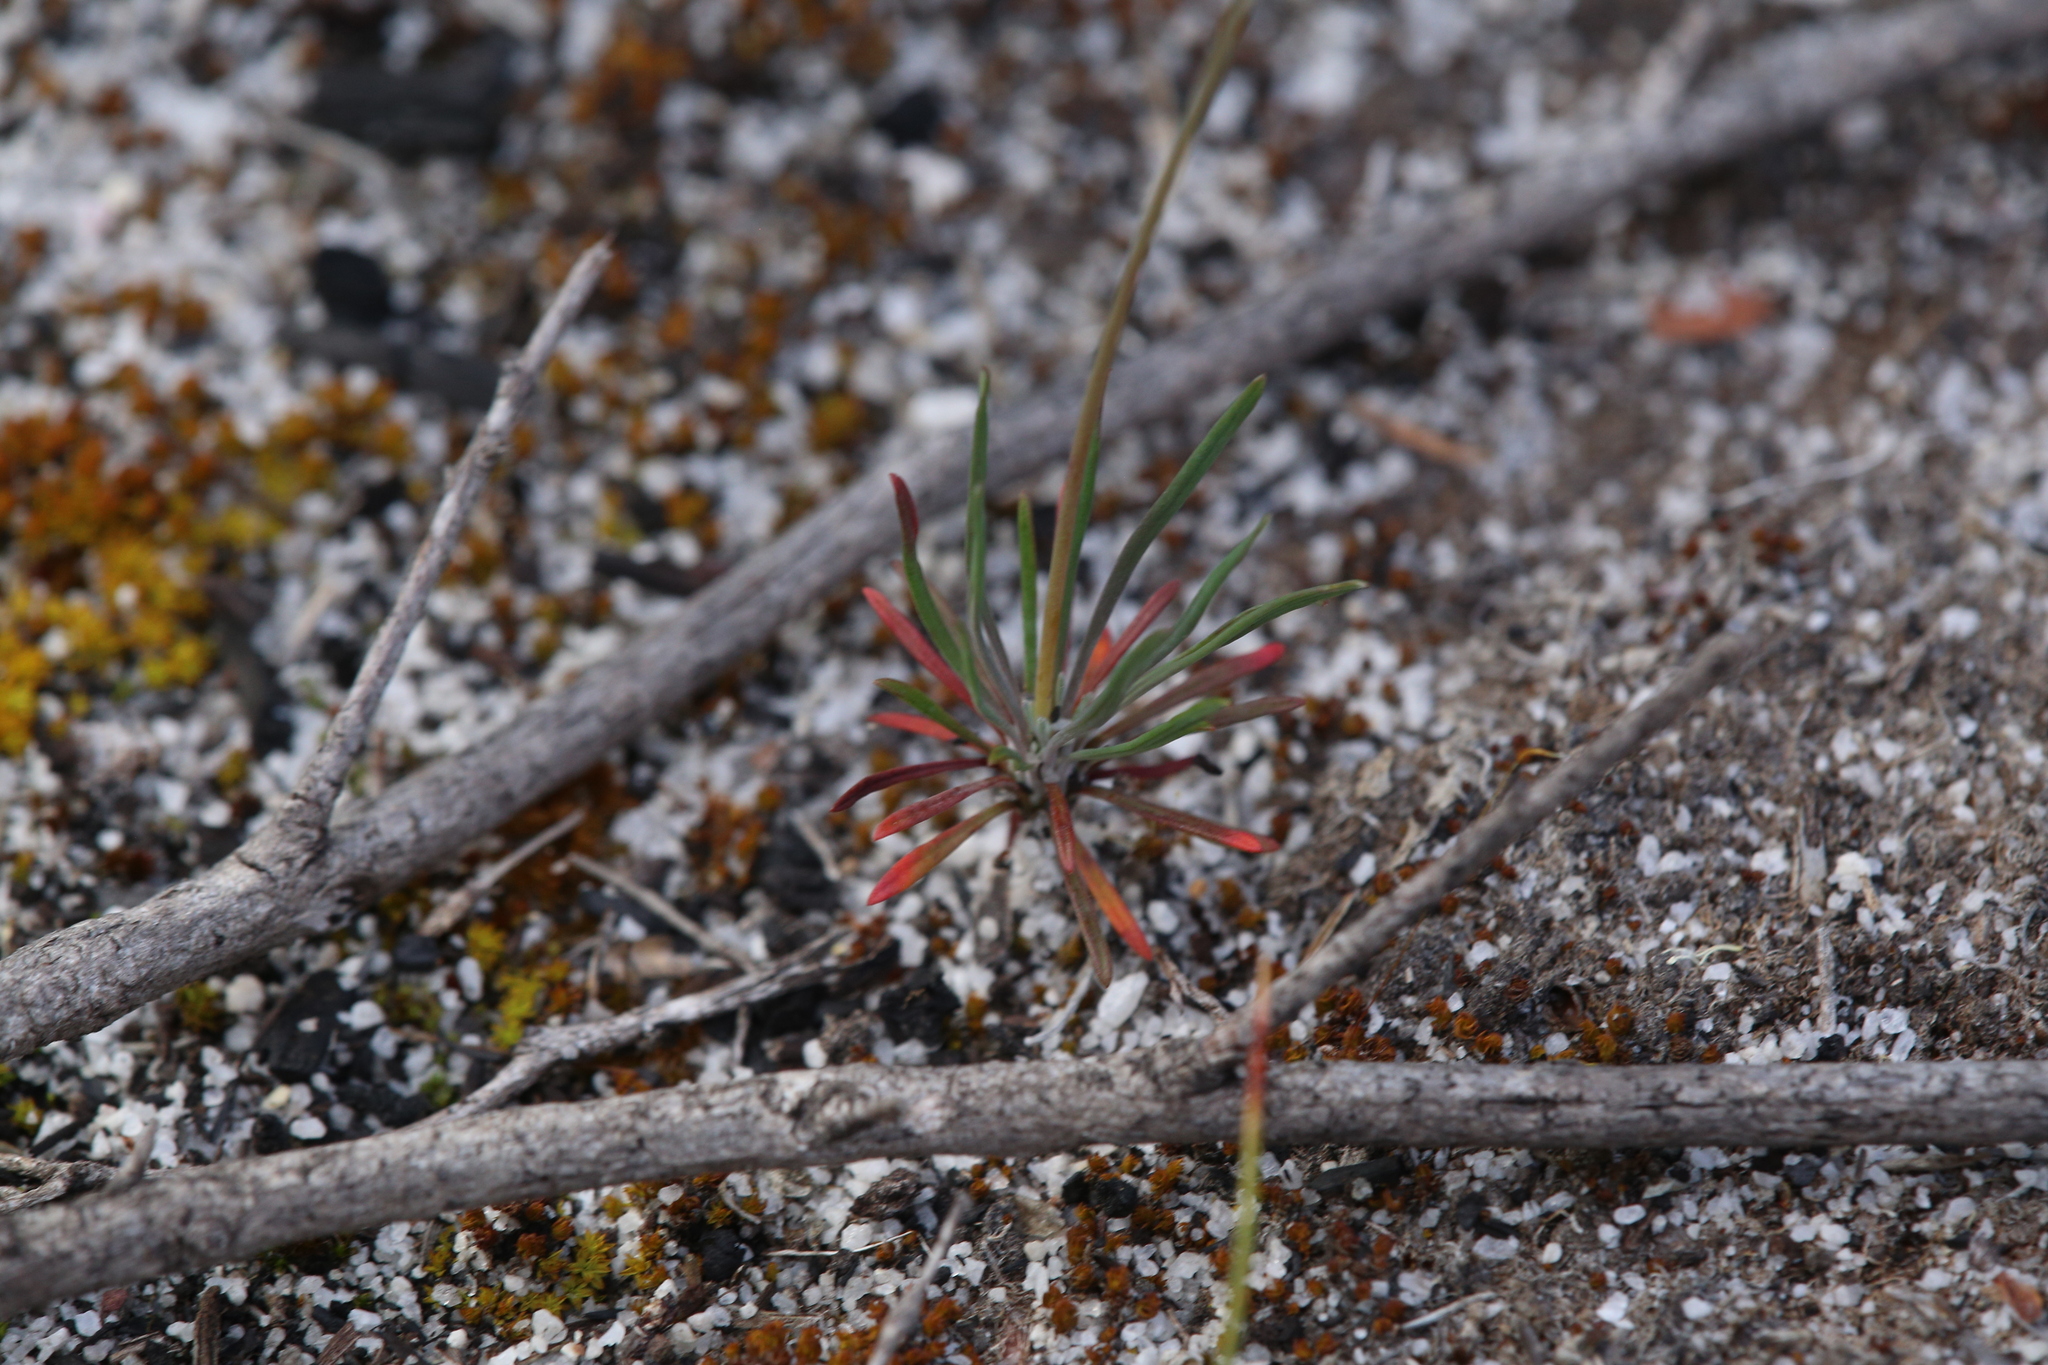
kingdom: Plantae
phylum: Tracheophyta
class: Magnoliopsida
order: Asterales
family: Stylidiaceae
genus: Stylidium
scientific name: Stylidium violaceum
